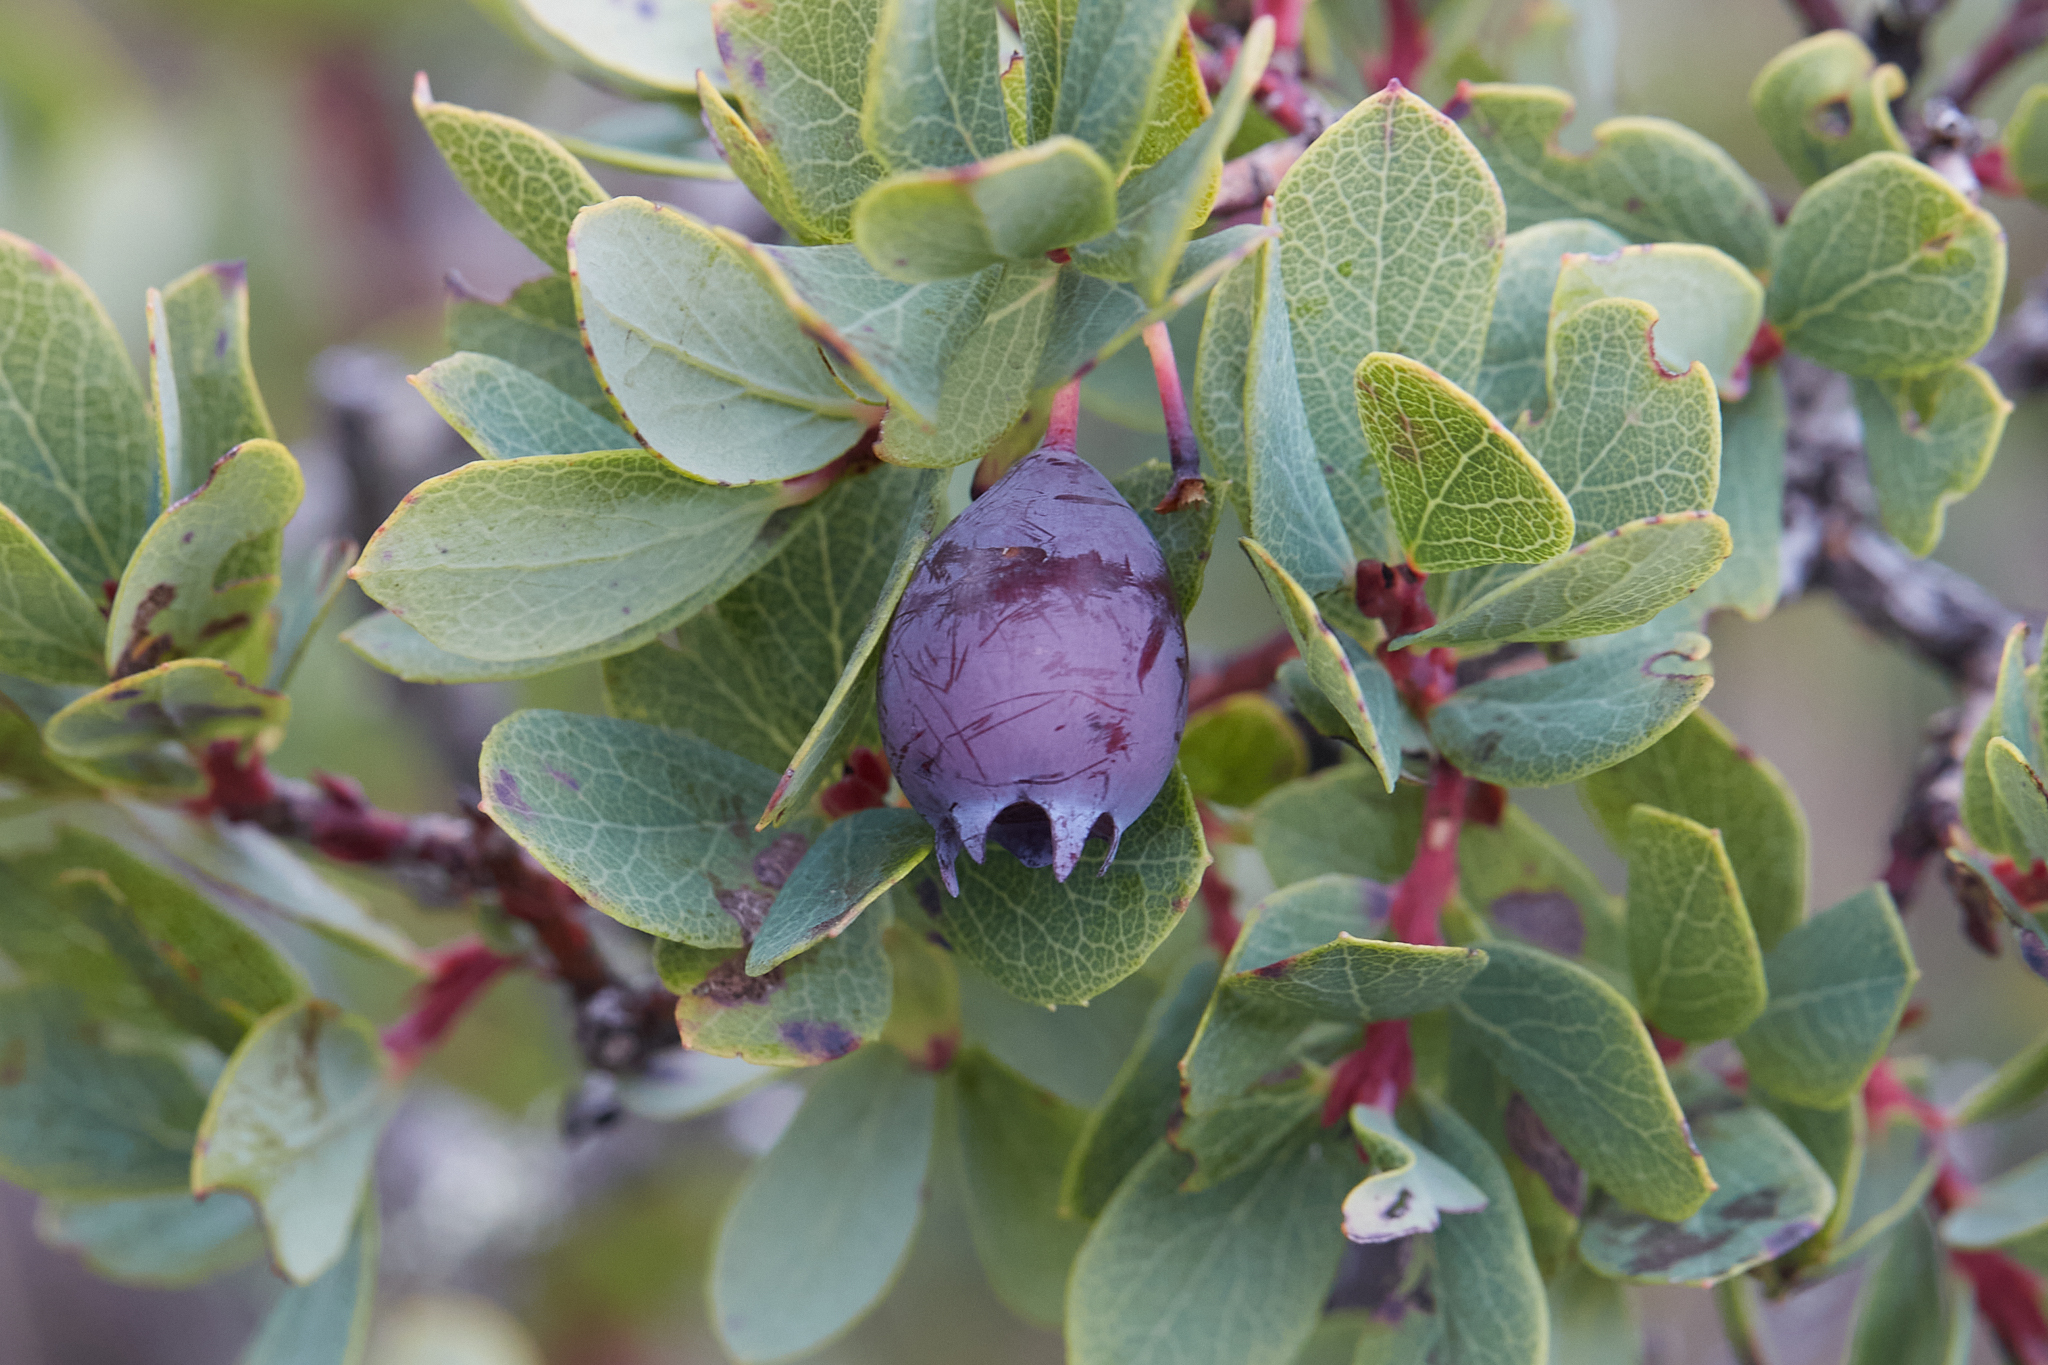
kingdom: Plantae
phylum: Tracheophyta
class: Magnoliopsida
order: Ericales
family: Ericaceae
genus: Vaccinium
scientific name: Vaccinium reticulatum
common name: Ohelo
